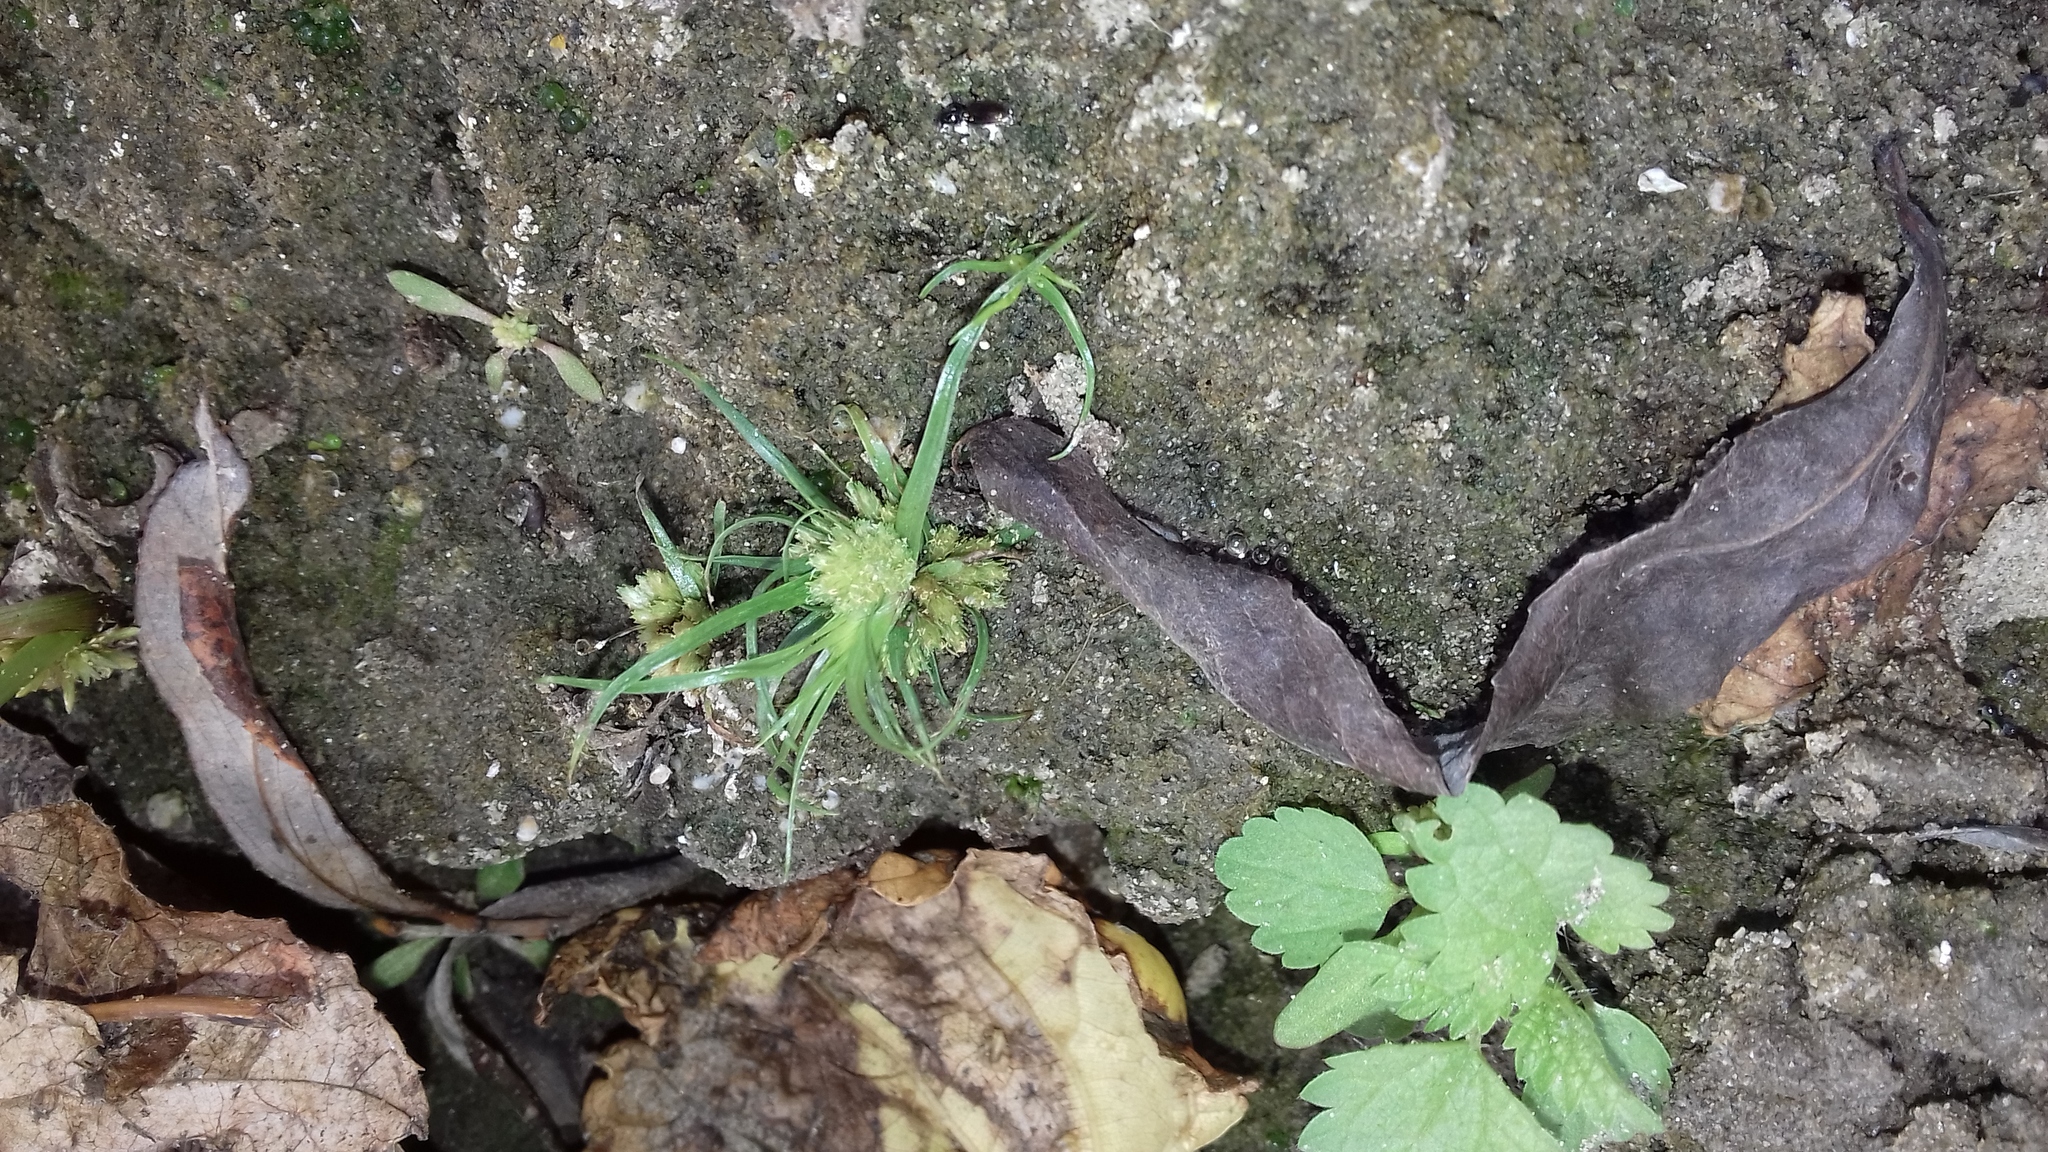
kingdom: Plantae
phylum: Tracheophyta
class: Liliopsida
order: Poales
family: Cyperaceae
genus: Cyperus
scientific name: Cyperus michelianus
